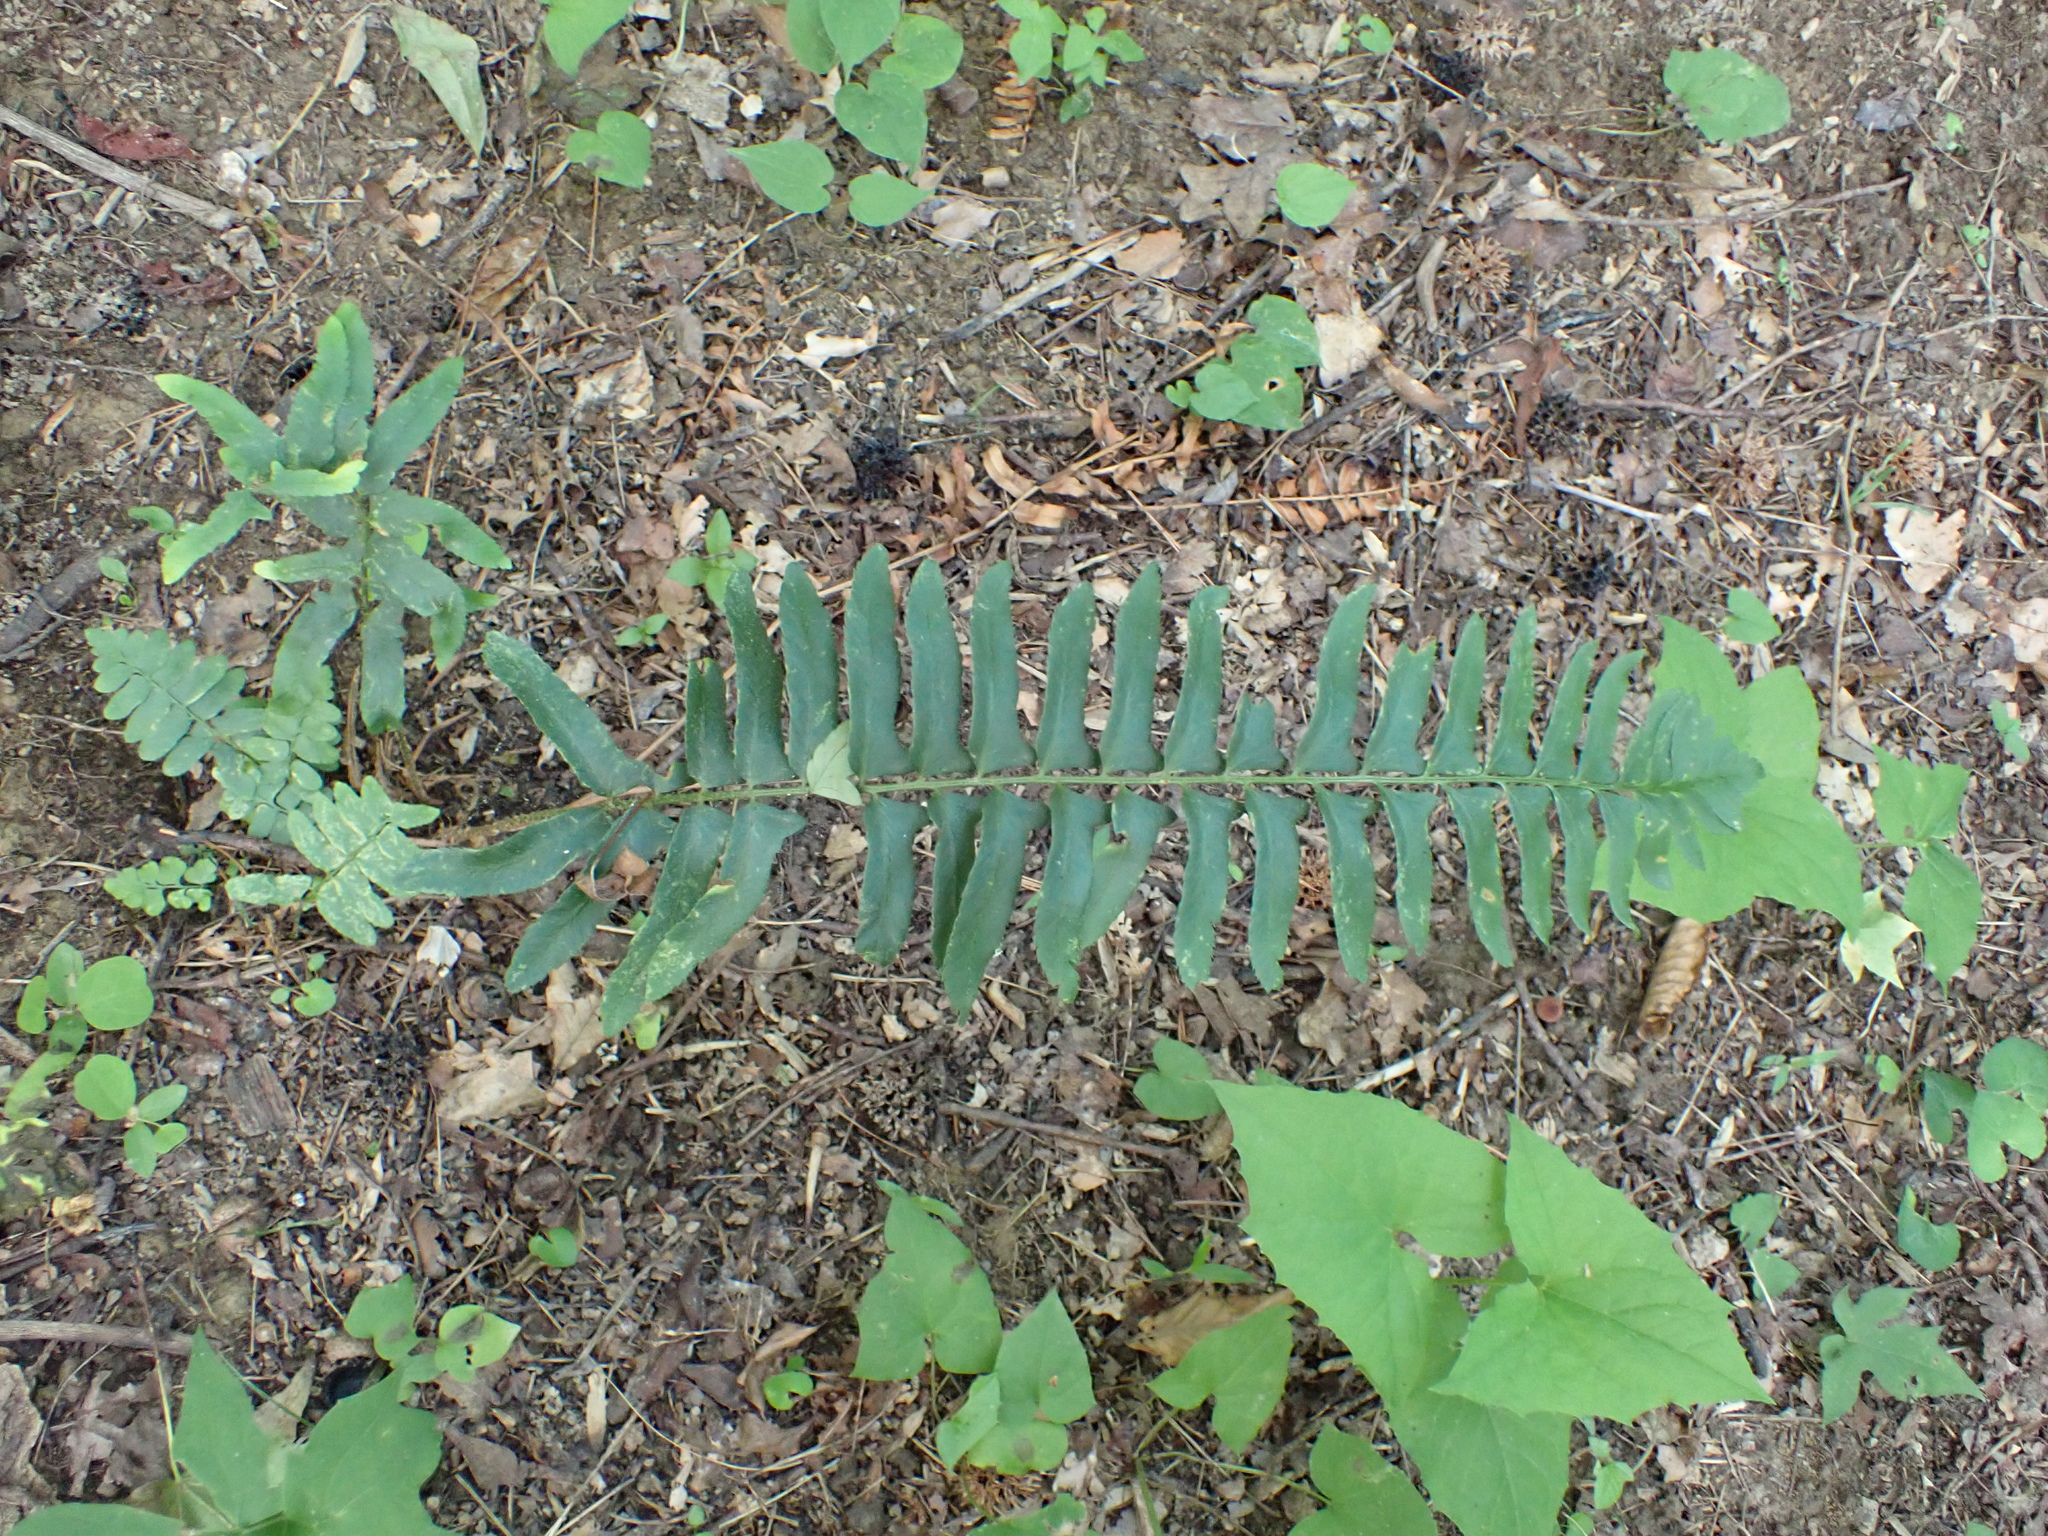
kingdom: Plantae
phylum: Tracheophyta
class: Polypodiopsida
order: Polypodiales
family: Dryopteridaceae
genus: Polystichum
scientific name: Polystichum acrostichoides
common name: Christmas fern
